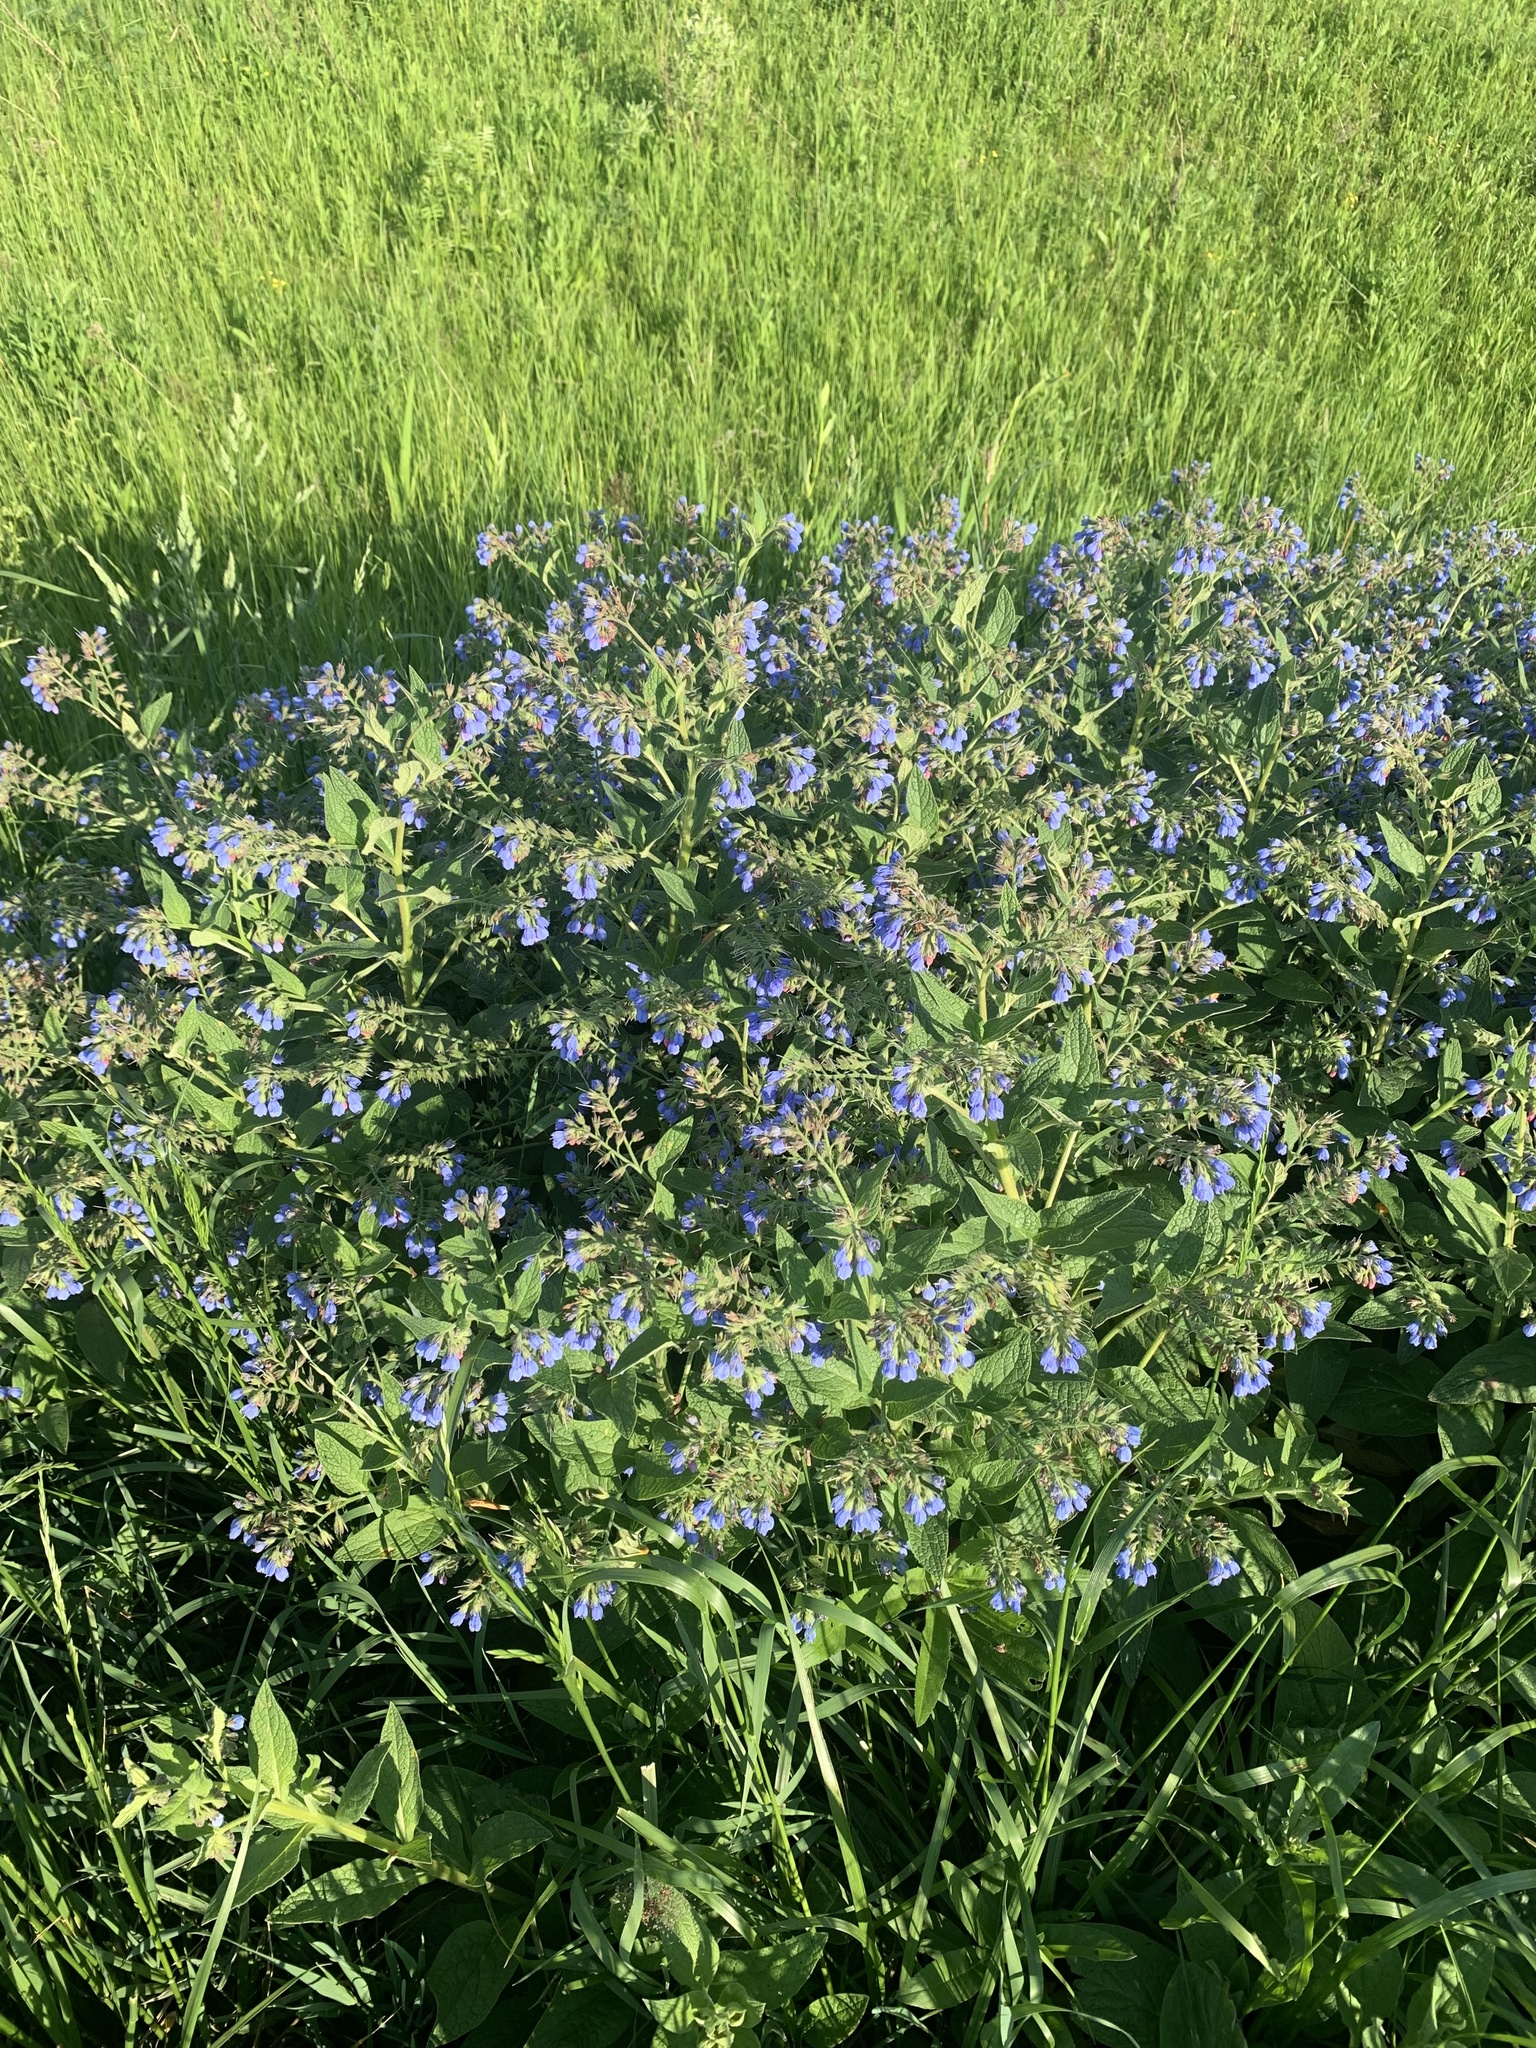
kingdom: Plantae
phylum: Tracheophyta
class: Magnoliopsida
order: Boraginales
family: Boraginaceae
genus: Symphytum
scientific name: Symphytum caucasicum
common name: Caucasian comfrey
